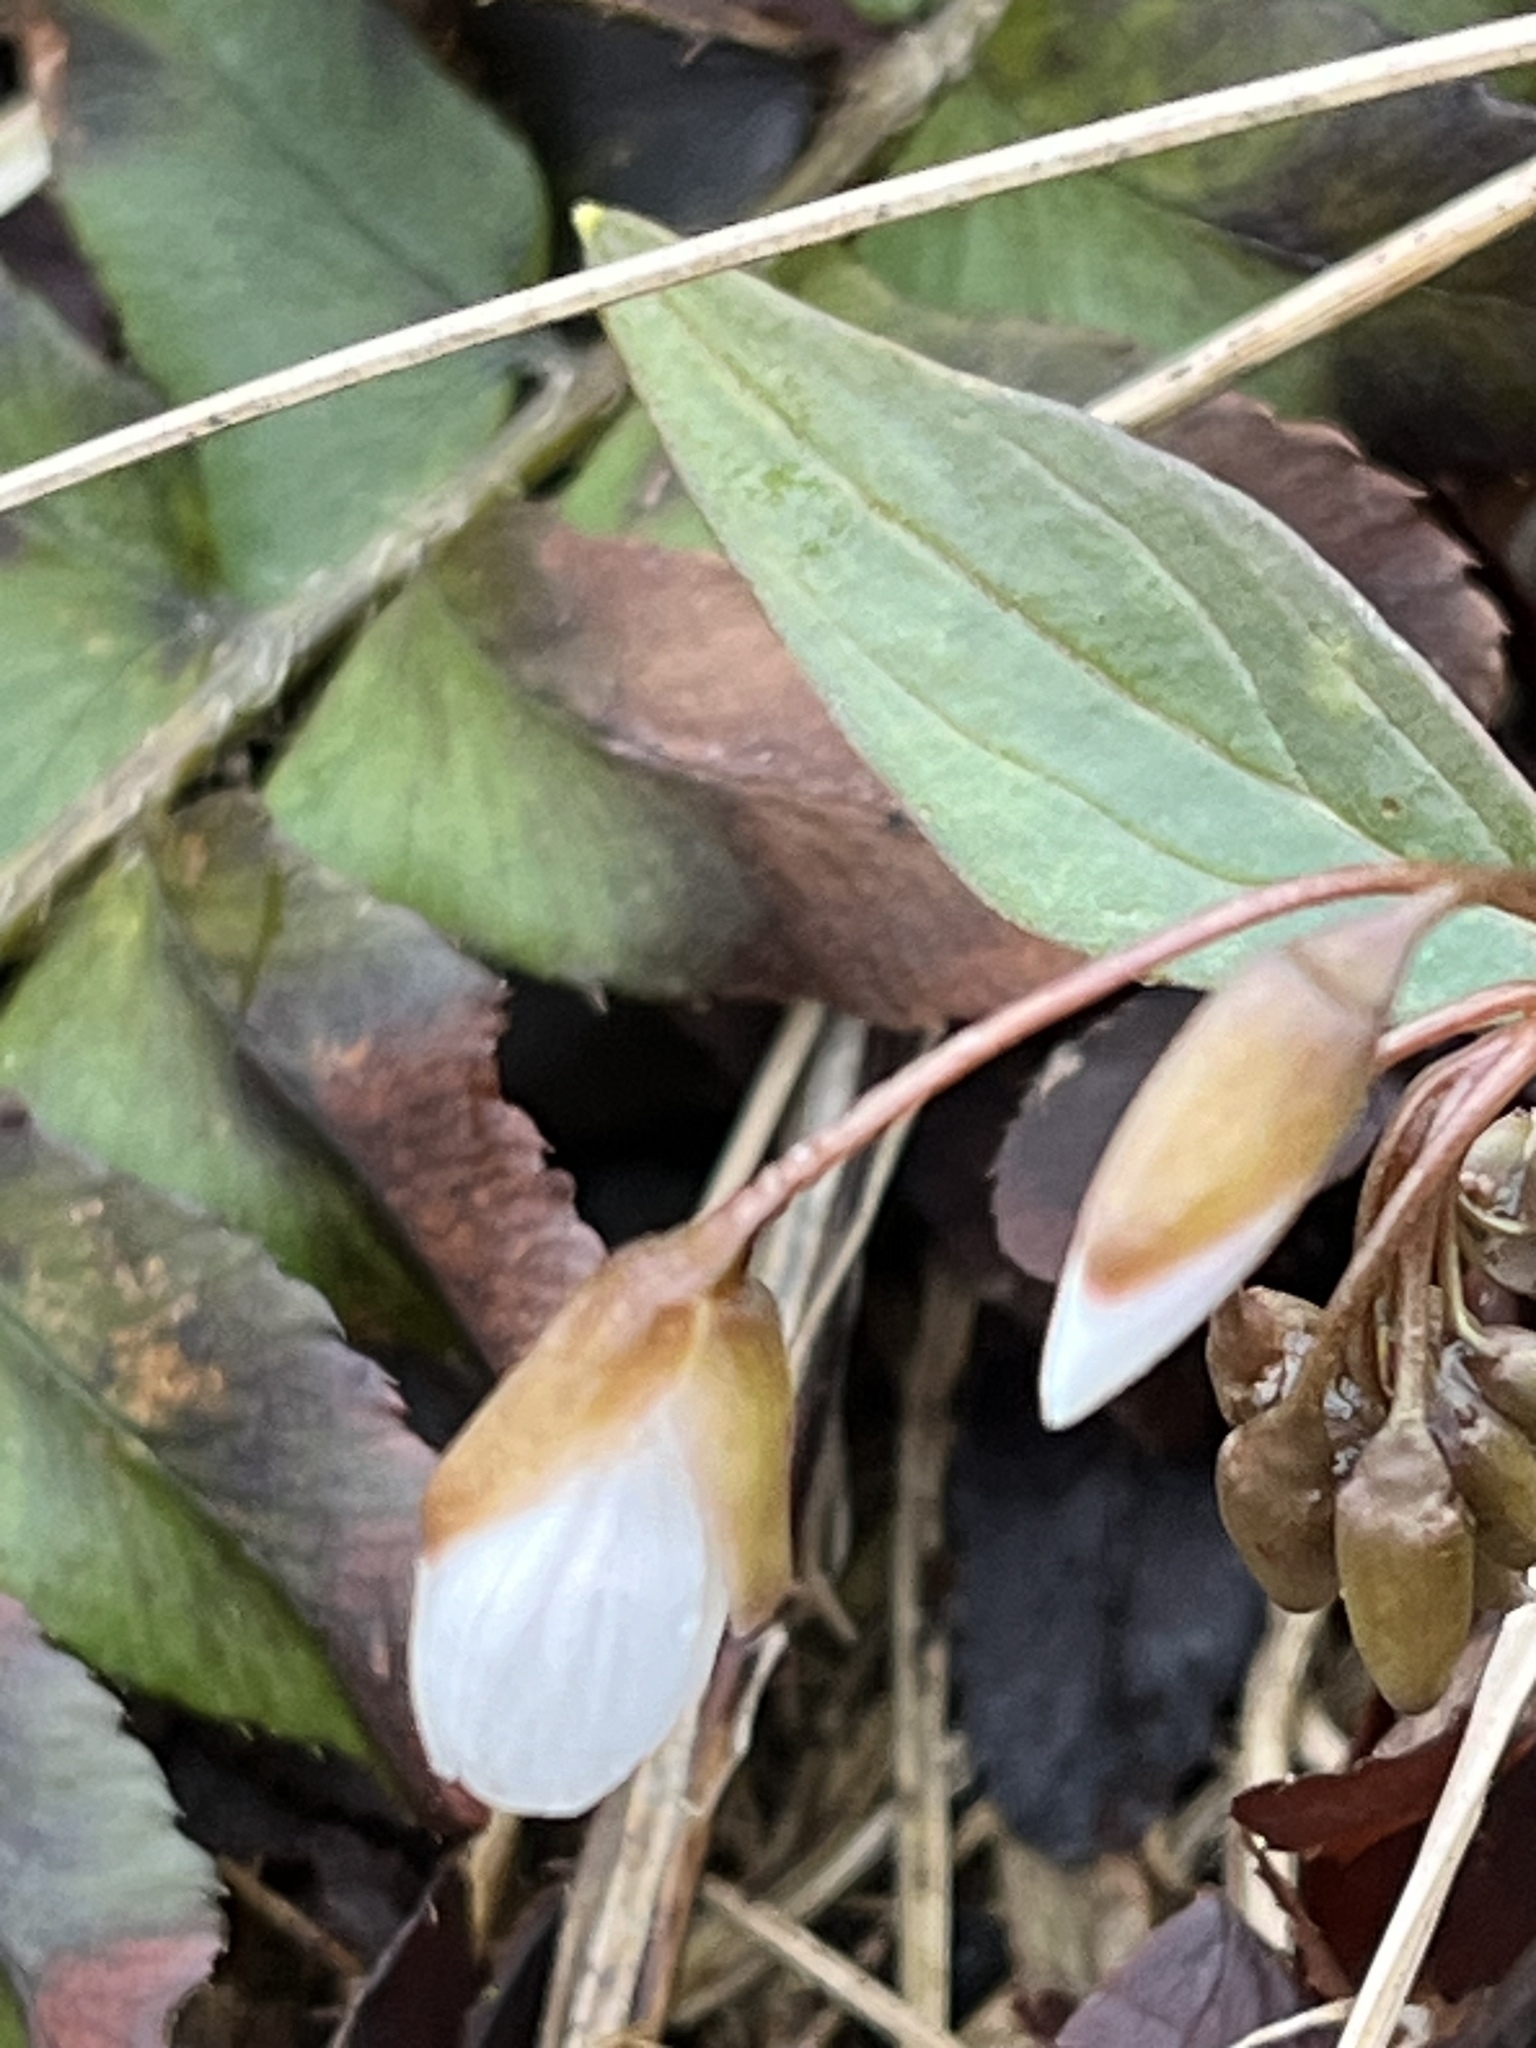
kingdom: Plantae
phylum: Tracheophyta
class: Magnoliopsida
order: Caryophyllales
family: Montiaceae
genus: Claytonia
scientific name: Claytonia caroliniana
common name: Carolina spring beauty
